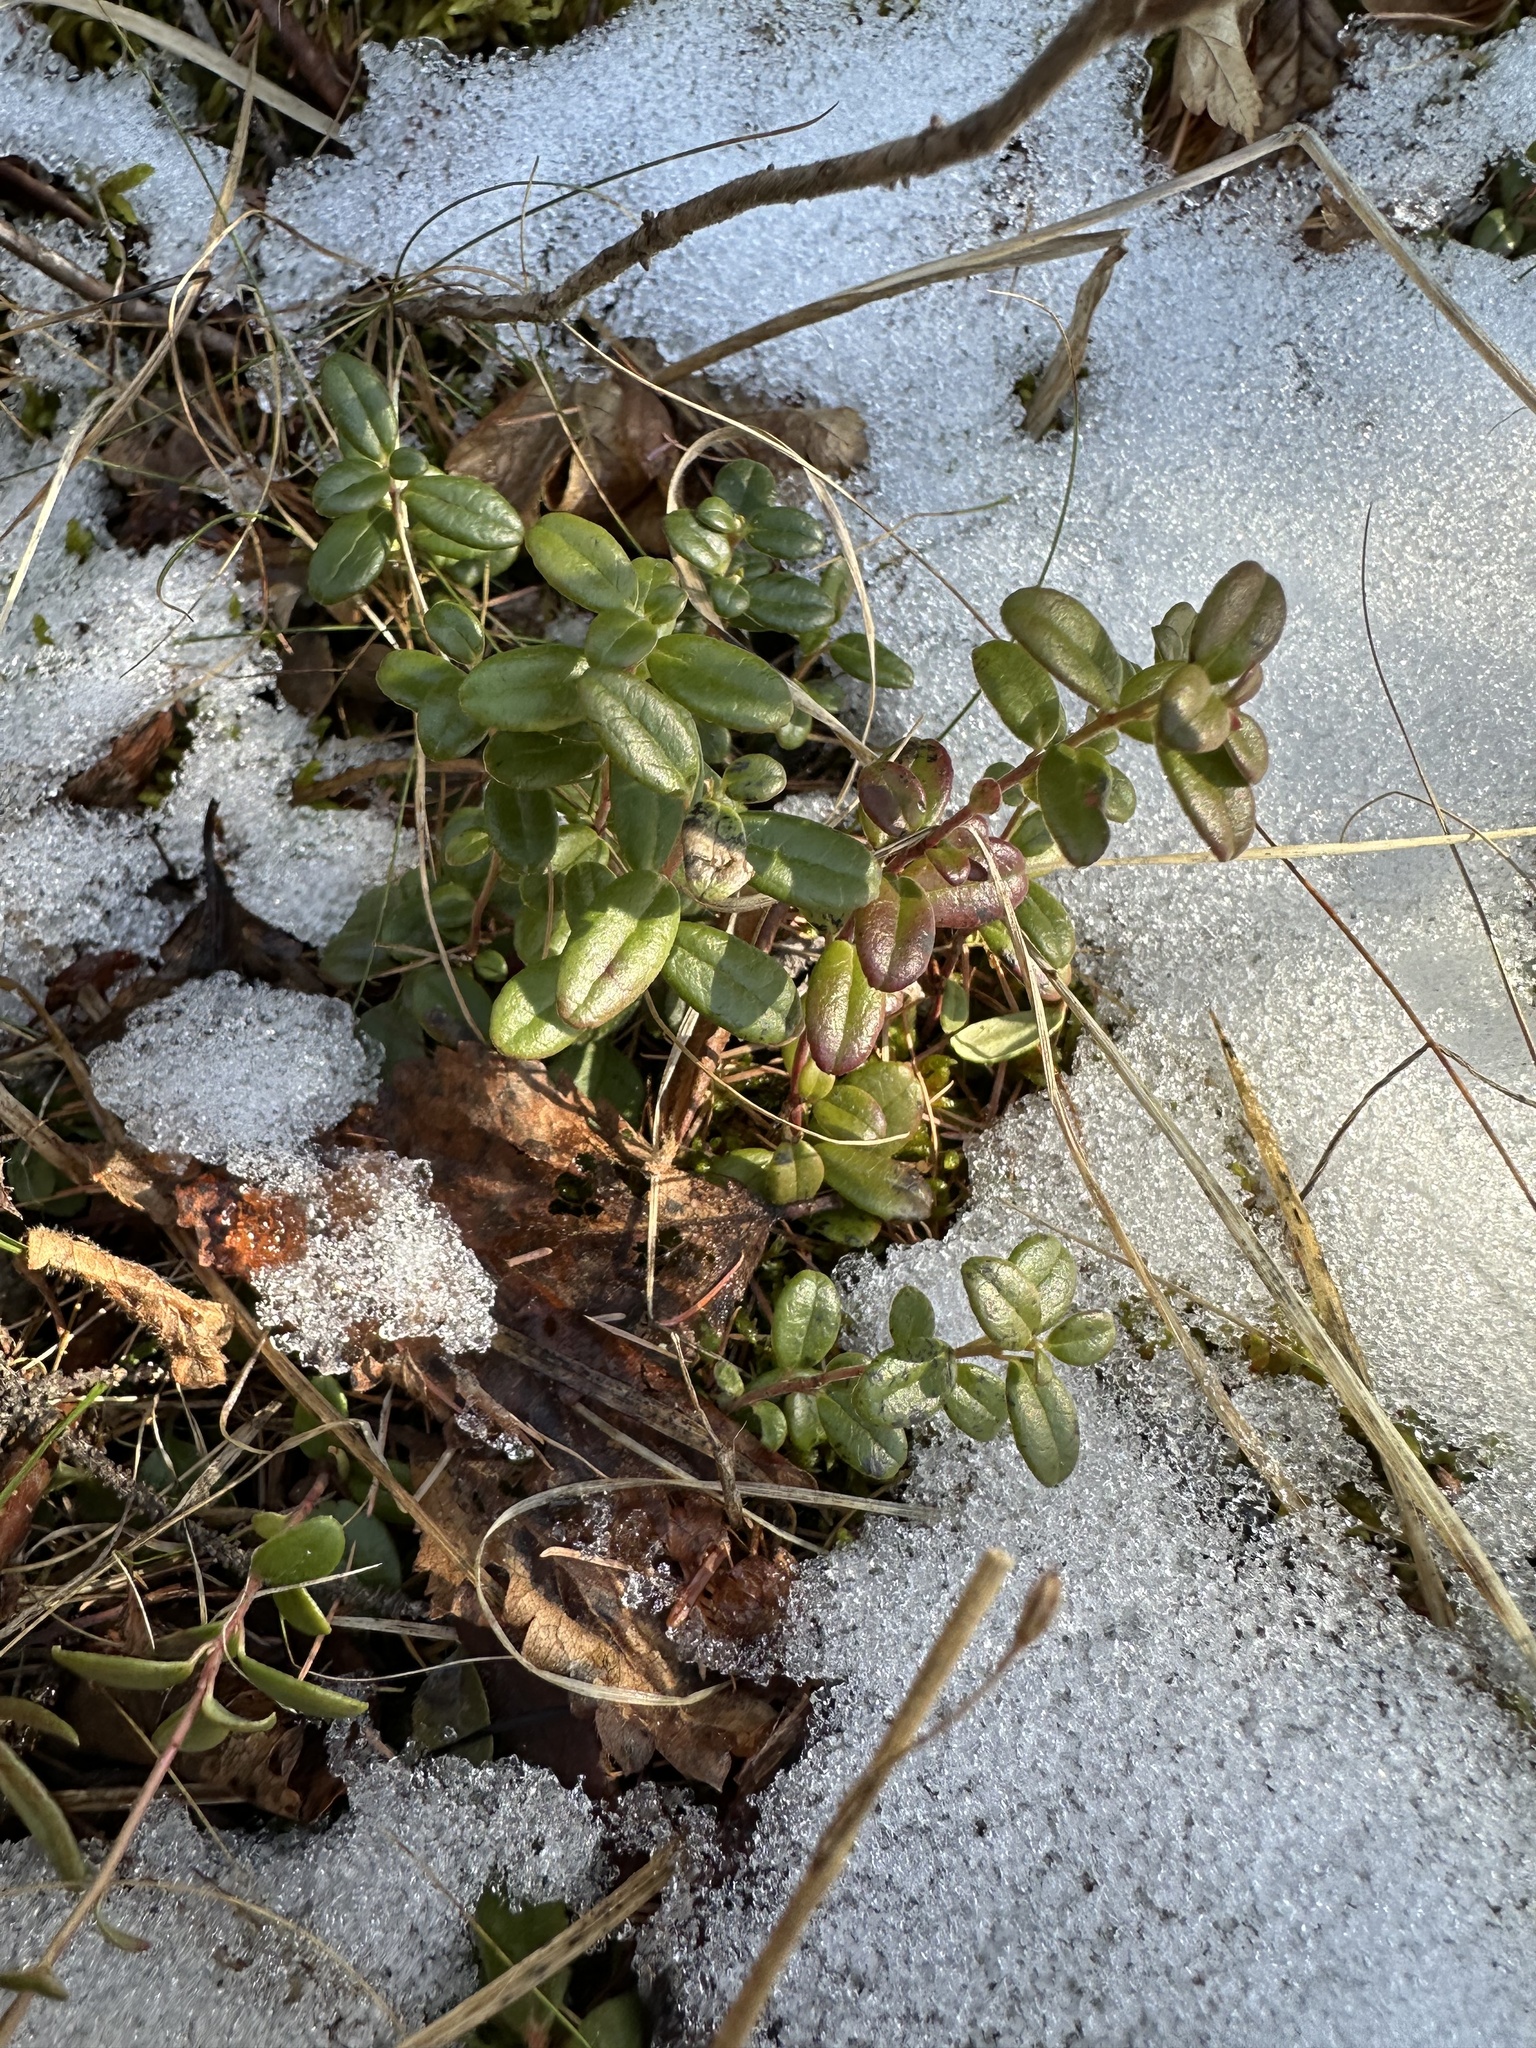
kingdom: Plantae
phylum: Tracheophyta
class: Magnoliopsida
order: Ericales
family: Ericaceae
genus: Vaccinium
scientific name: Vaccinium vitis-idaea
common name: Cowberry
